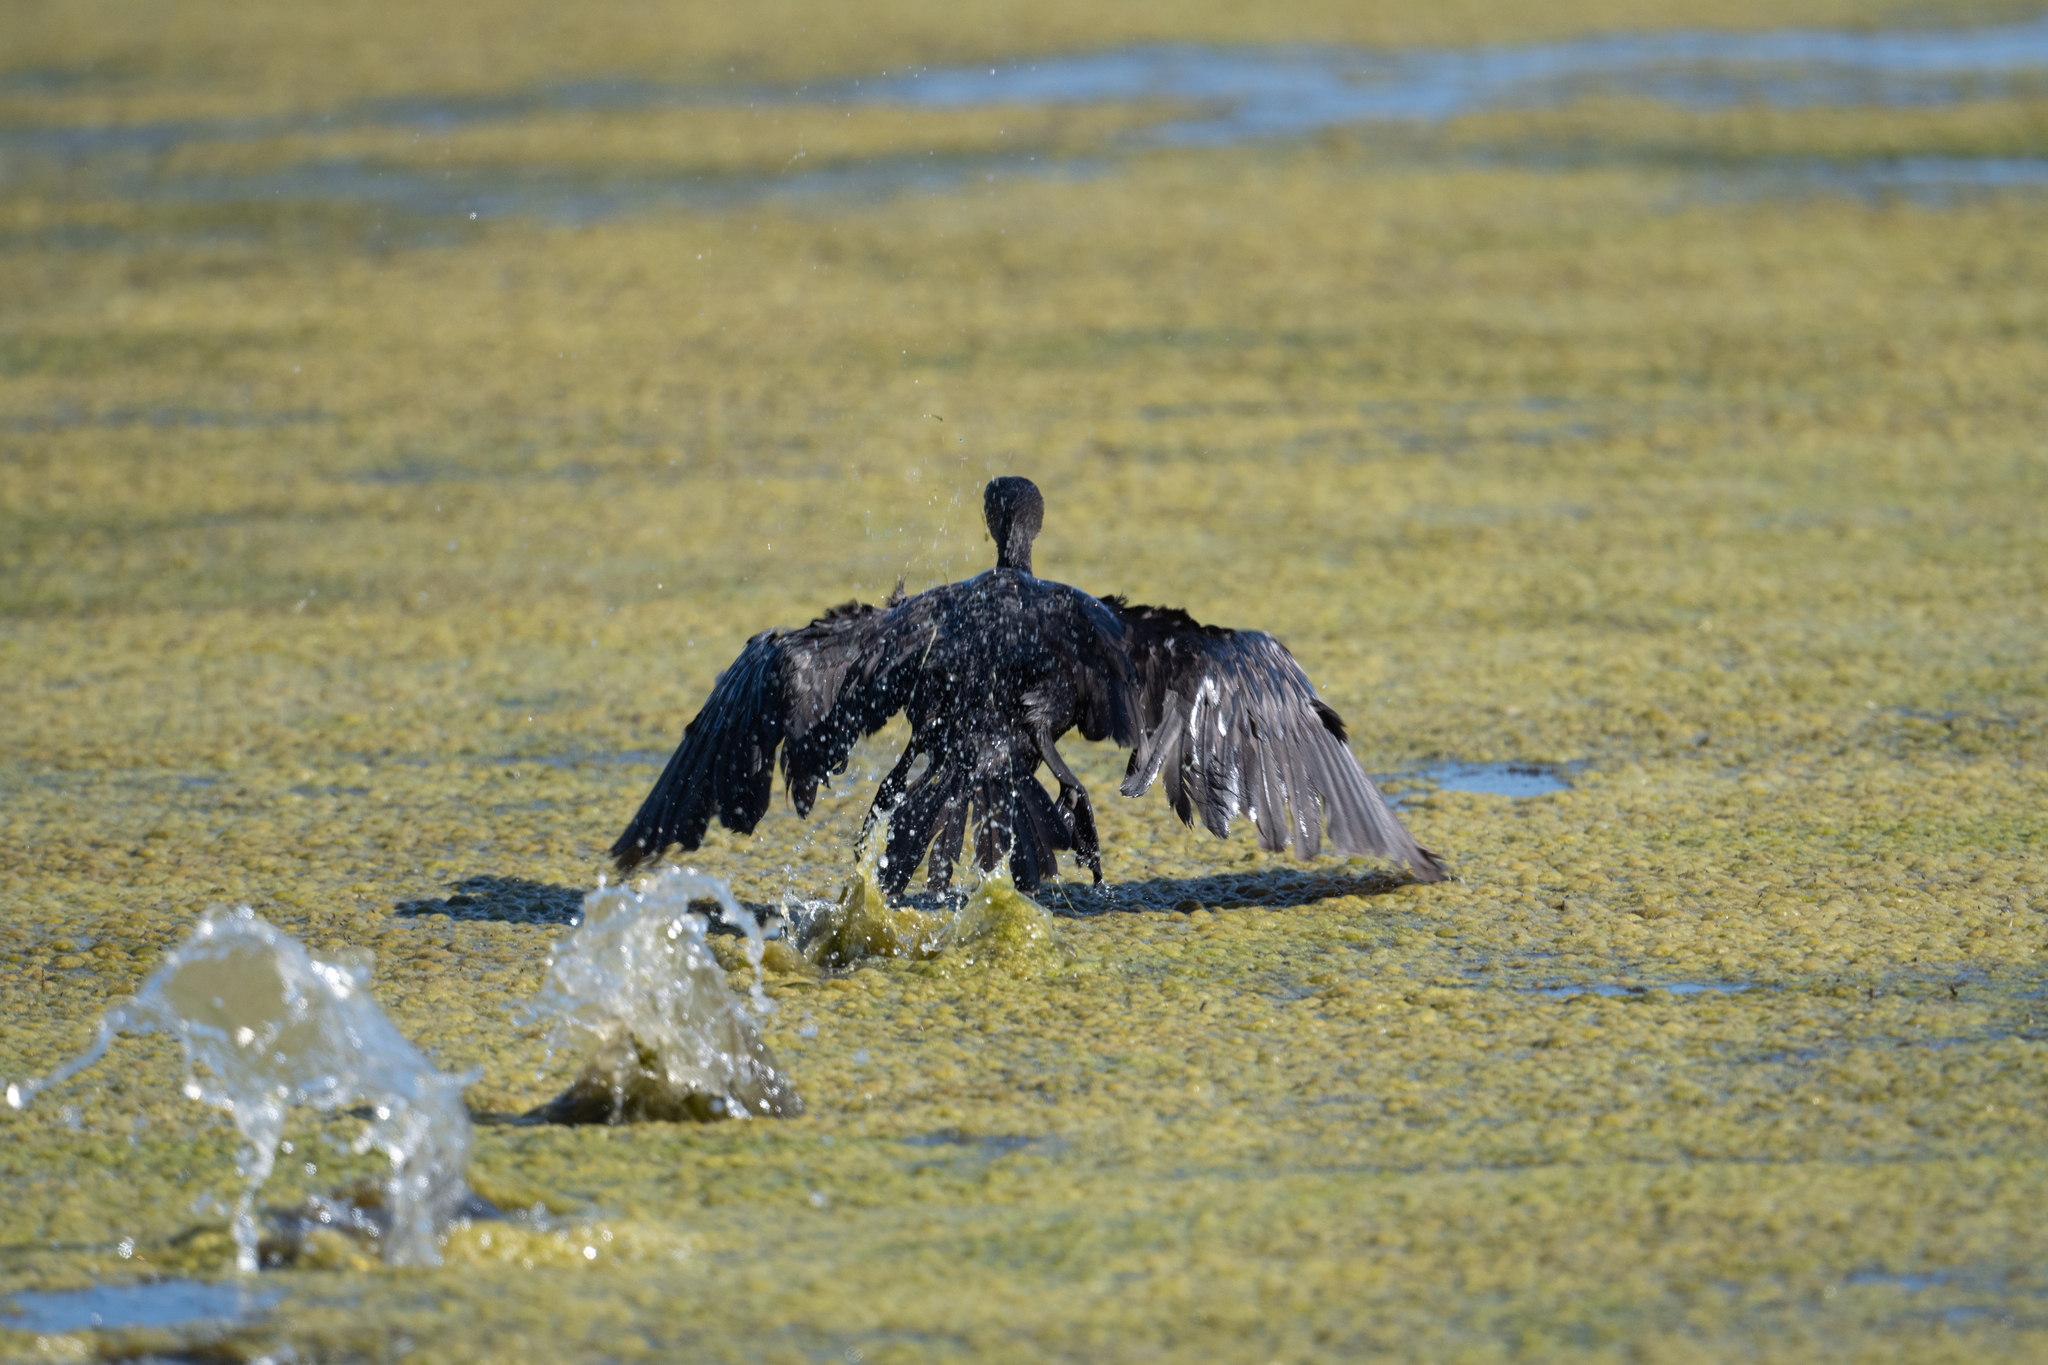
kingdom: Animalia
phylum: Chordata
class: Aves
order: Suliformes
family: Phalacrocoracidae
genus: Phalacrocorax
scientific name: Phalacrocorax auritus
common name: Double-crested cormorant
